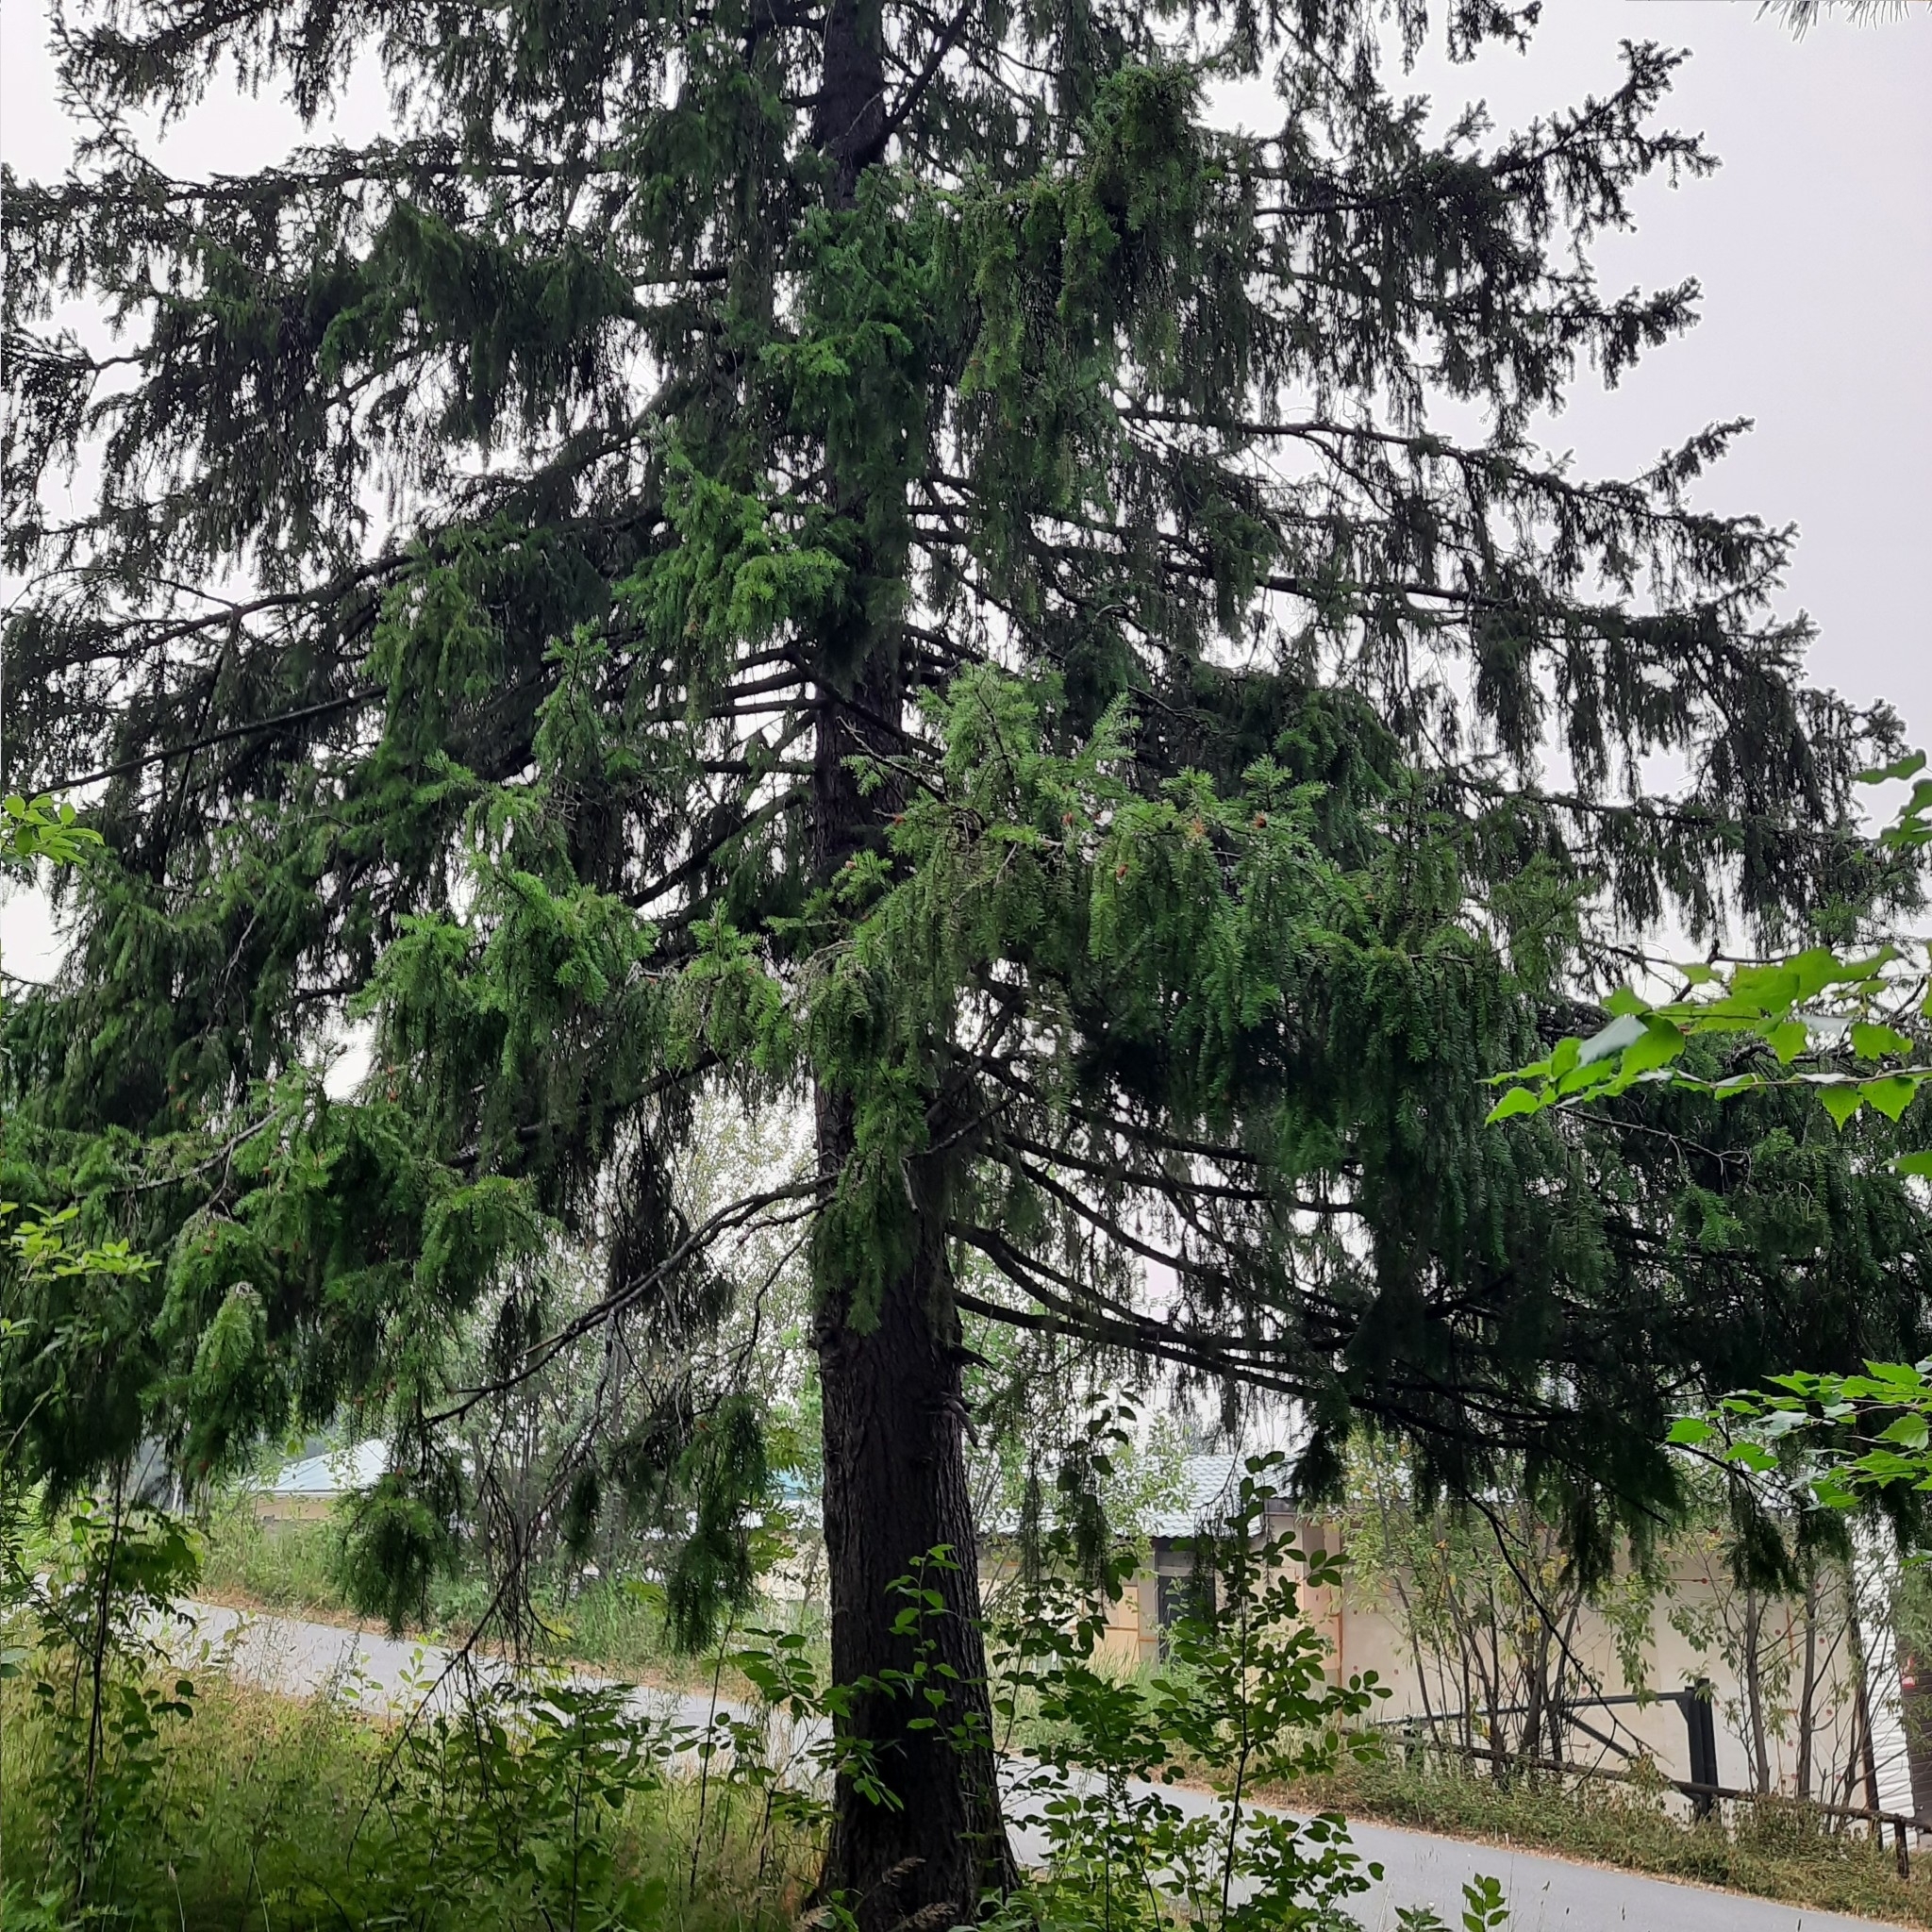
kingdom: Plantae
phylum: Tracheophyta
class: Pinopsida
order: Pinales
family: Pinaceae
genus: Picea
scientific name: Picea obovata
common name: Siberian spruce
